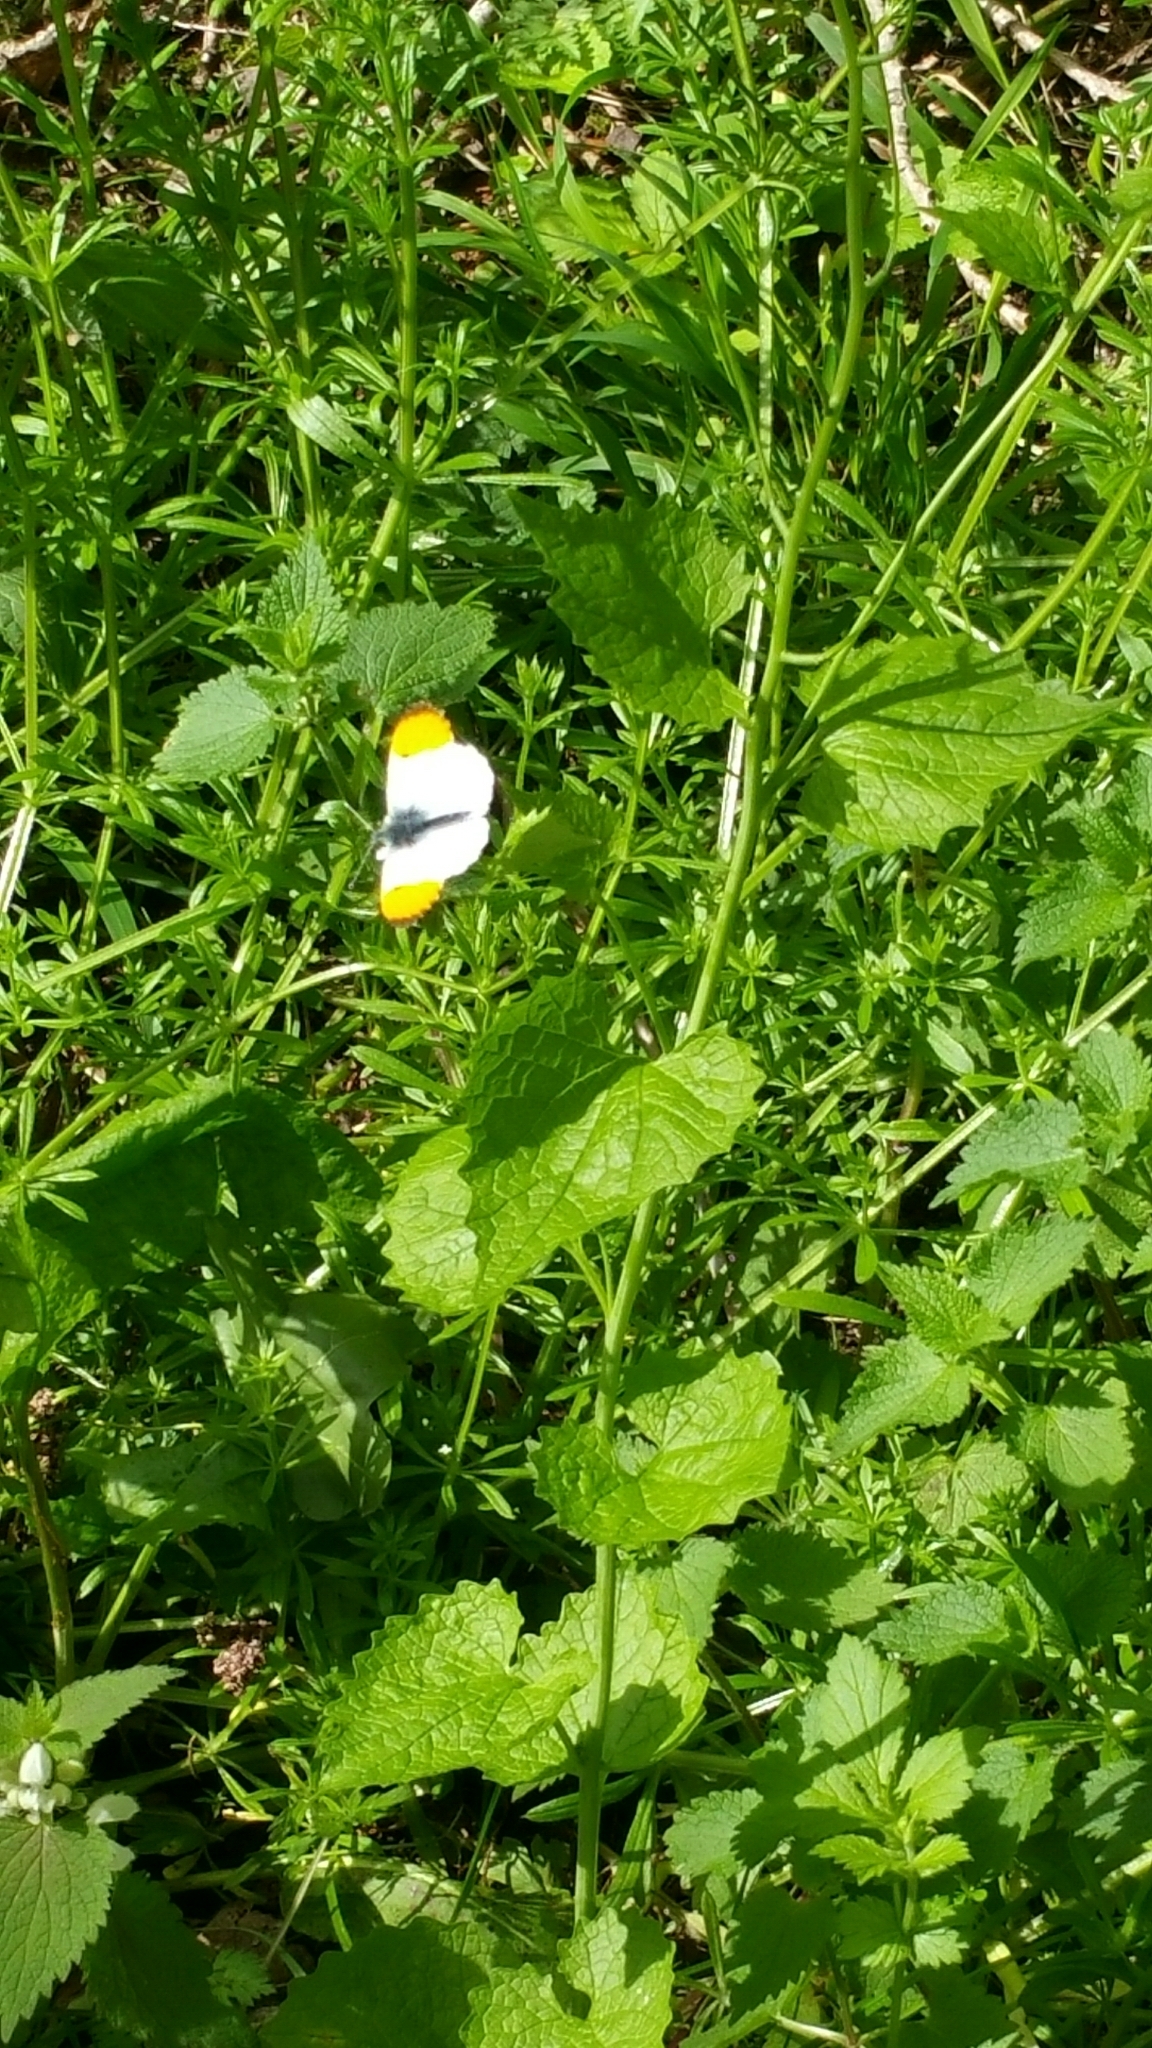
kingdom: Animalia
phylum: Arthropoda
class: Insecta
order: Lepidoptera
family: Pieridae
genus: Anthocharis
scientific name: Anthocharis cardamines
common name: Orange-tip
